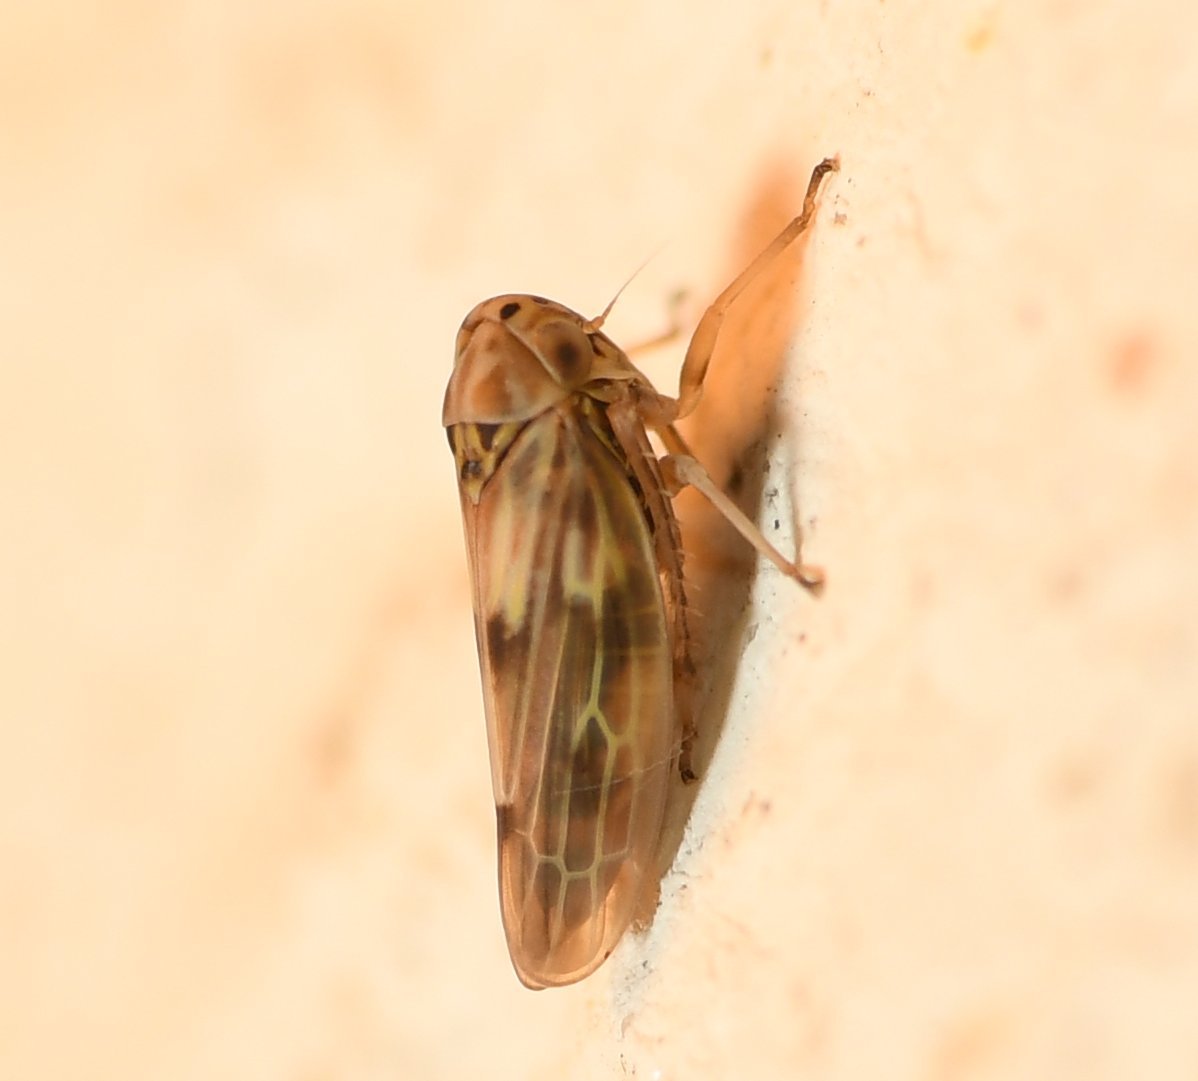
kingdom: Animalia
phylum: Arthropoda
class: Insecta
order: Hemiptera
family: Cicadellidae
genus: Agallia
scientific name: Agallia albidula
